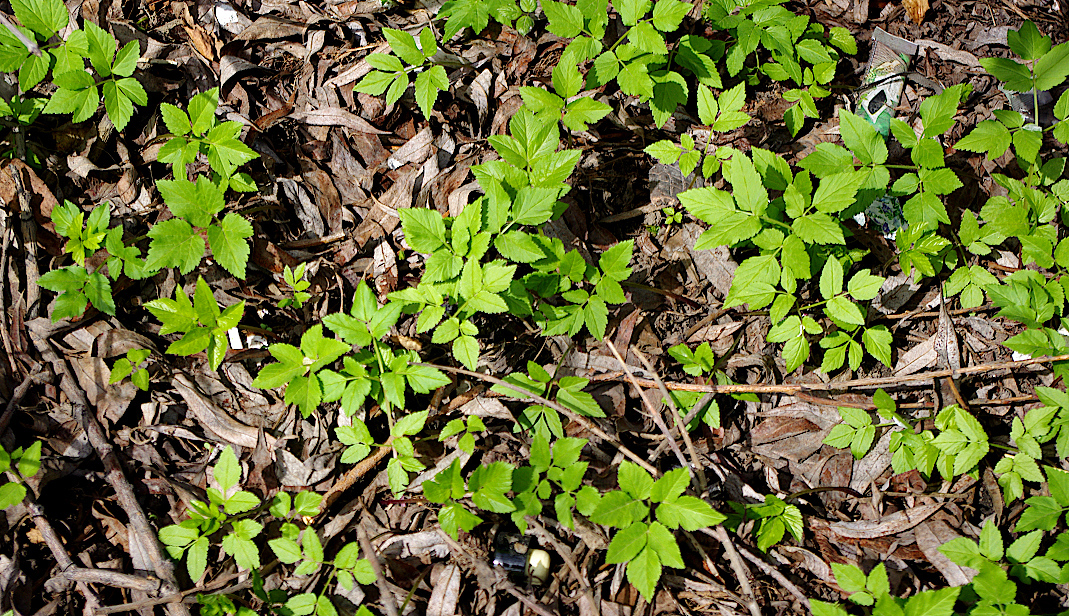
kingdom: Plantae
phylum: Tracheophyta
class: Magnoliopsida
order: Apiales
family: Apiaceae
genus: Aegopodium
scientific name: Aegopodium podagraria
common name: Ground-elder
